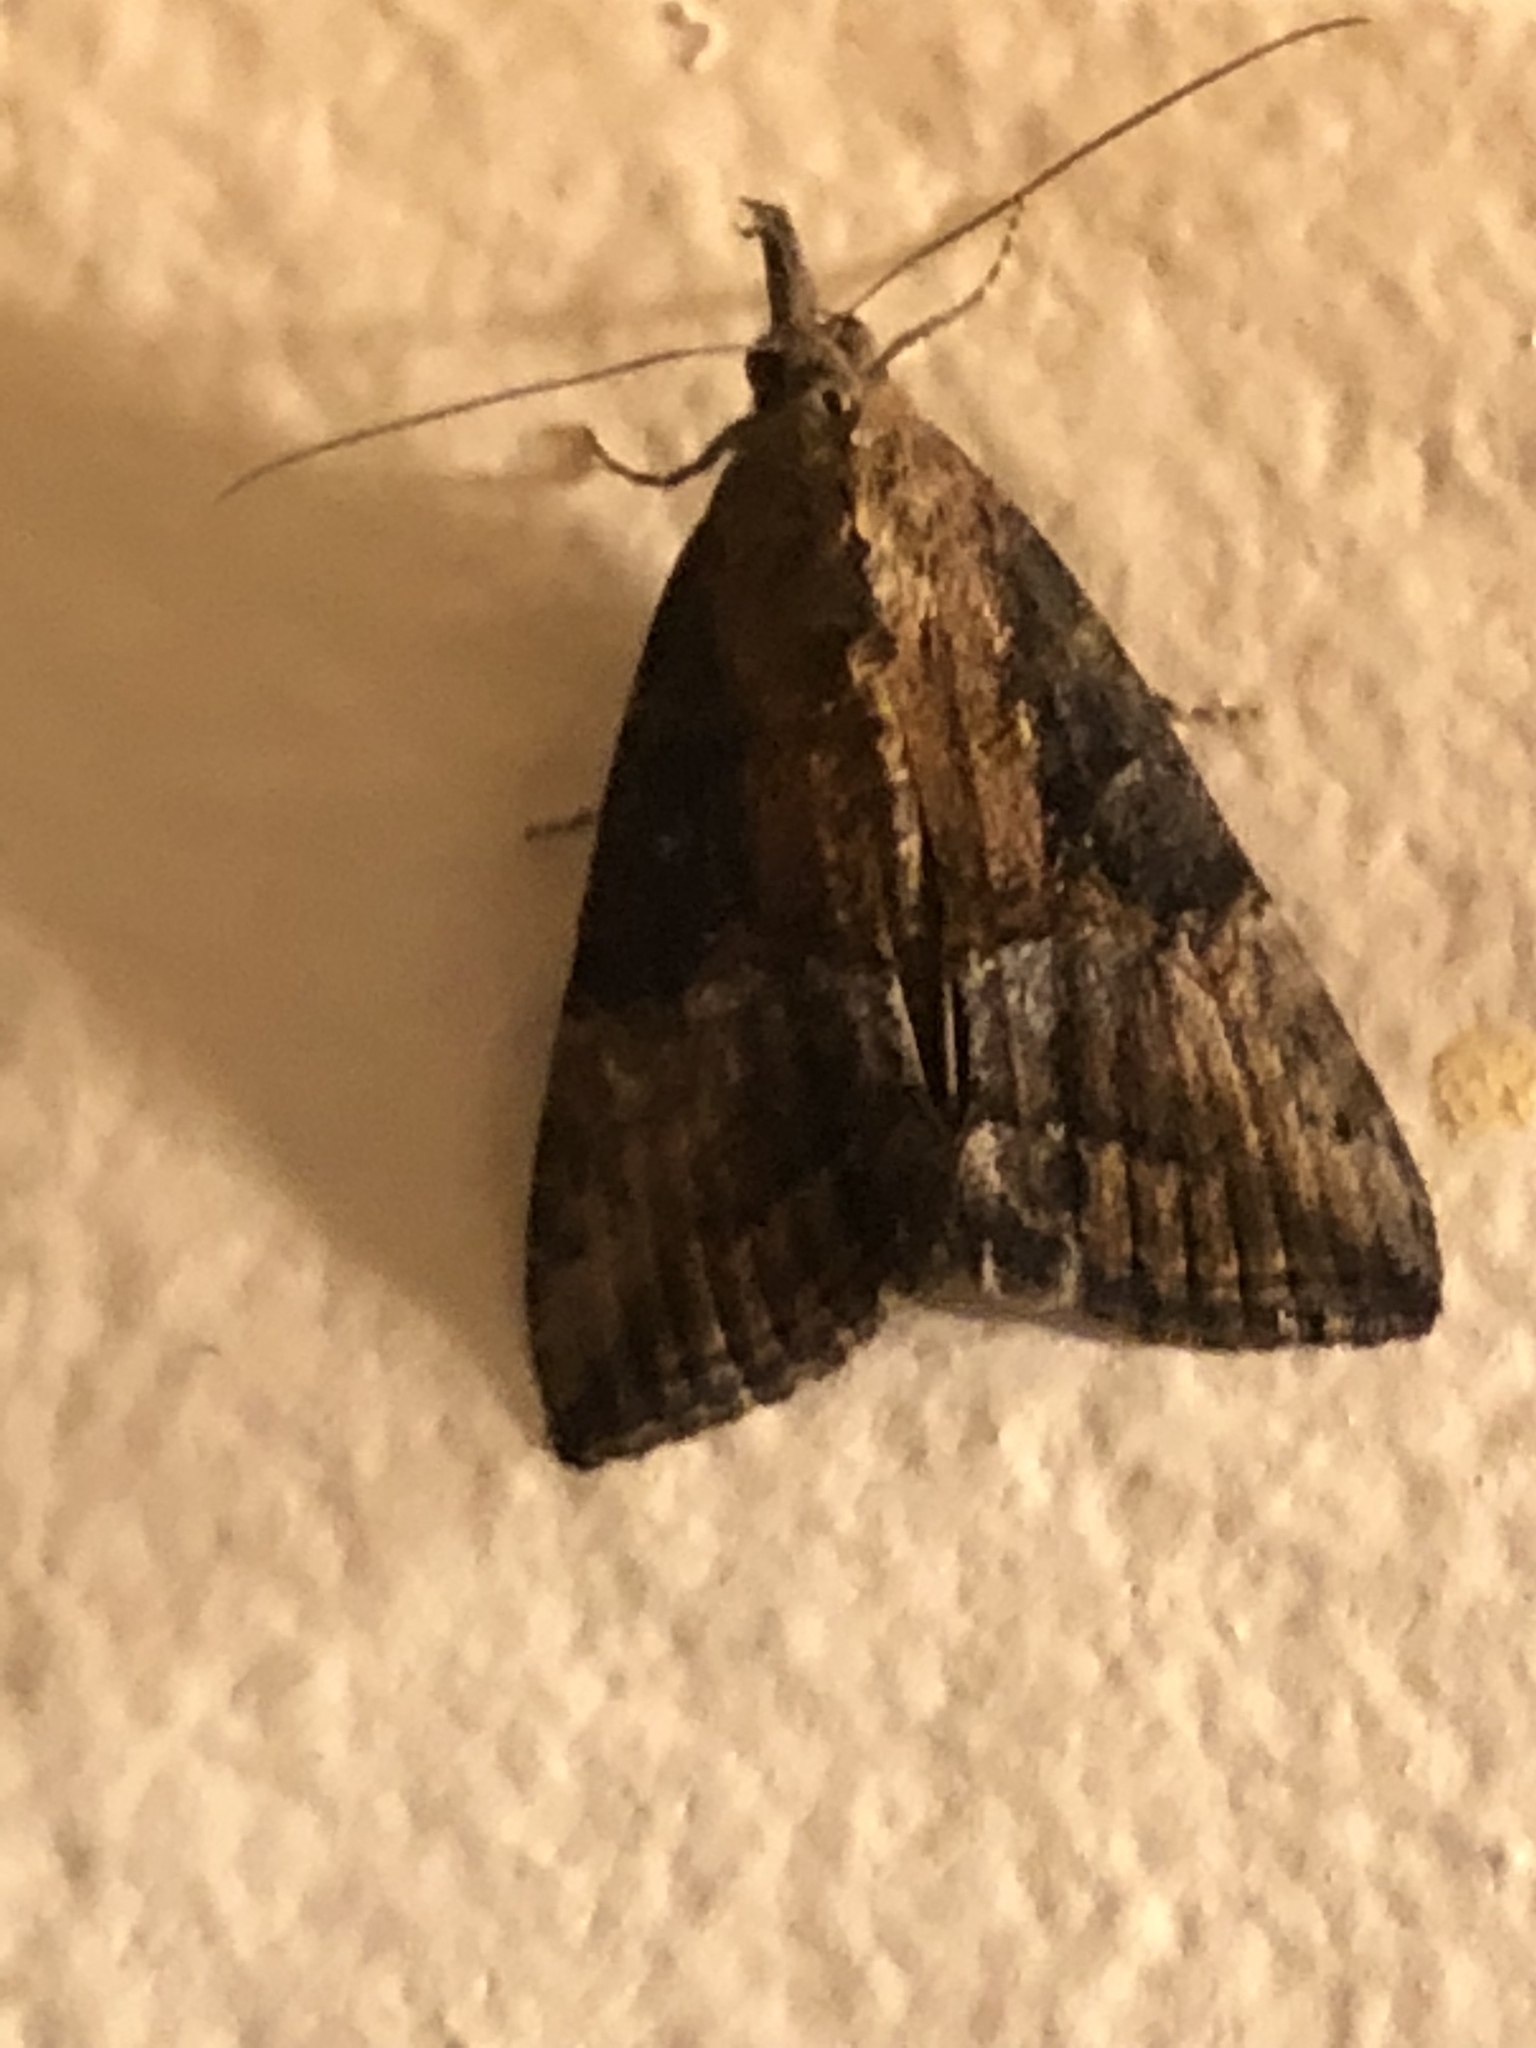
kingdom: Animalia
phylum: Arthropoda
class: Insecta
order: Lepidoptera
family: Erebidae
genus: Hypena
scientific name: Hypena scabra
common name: Green cloverworm
